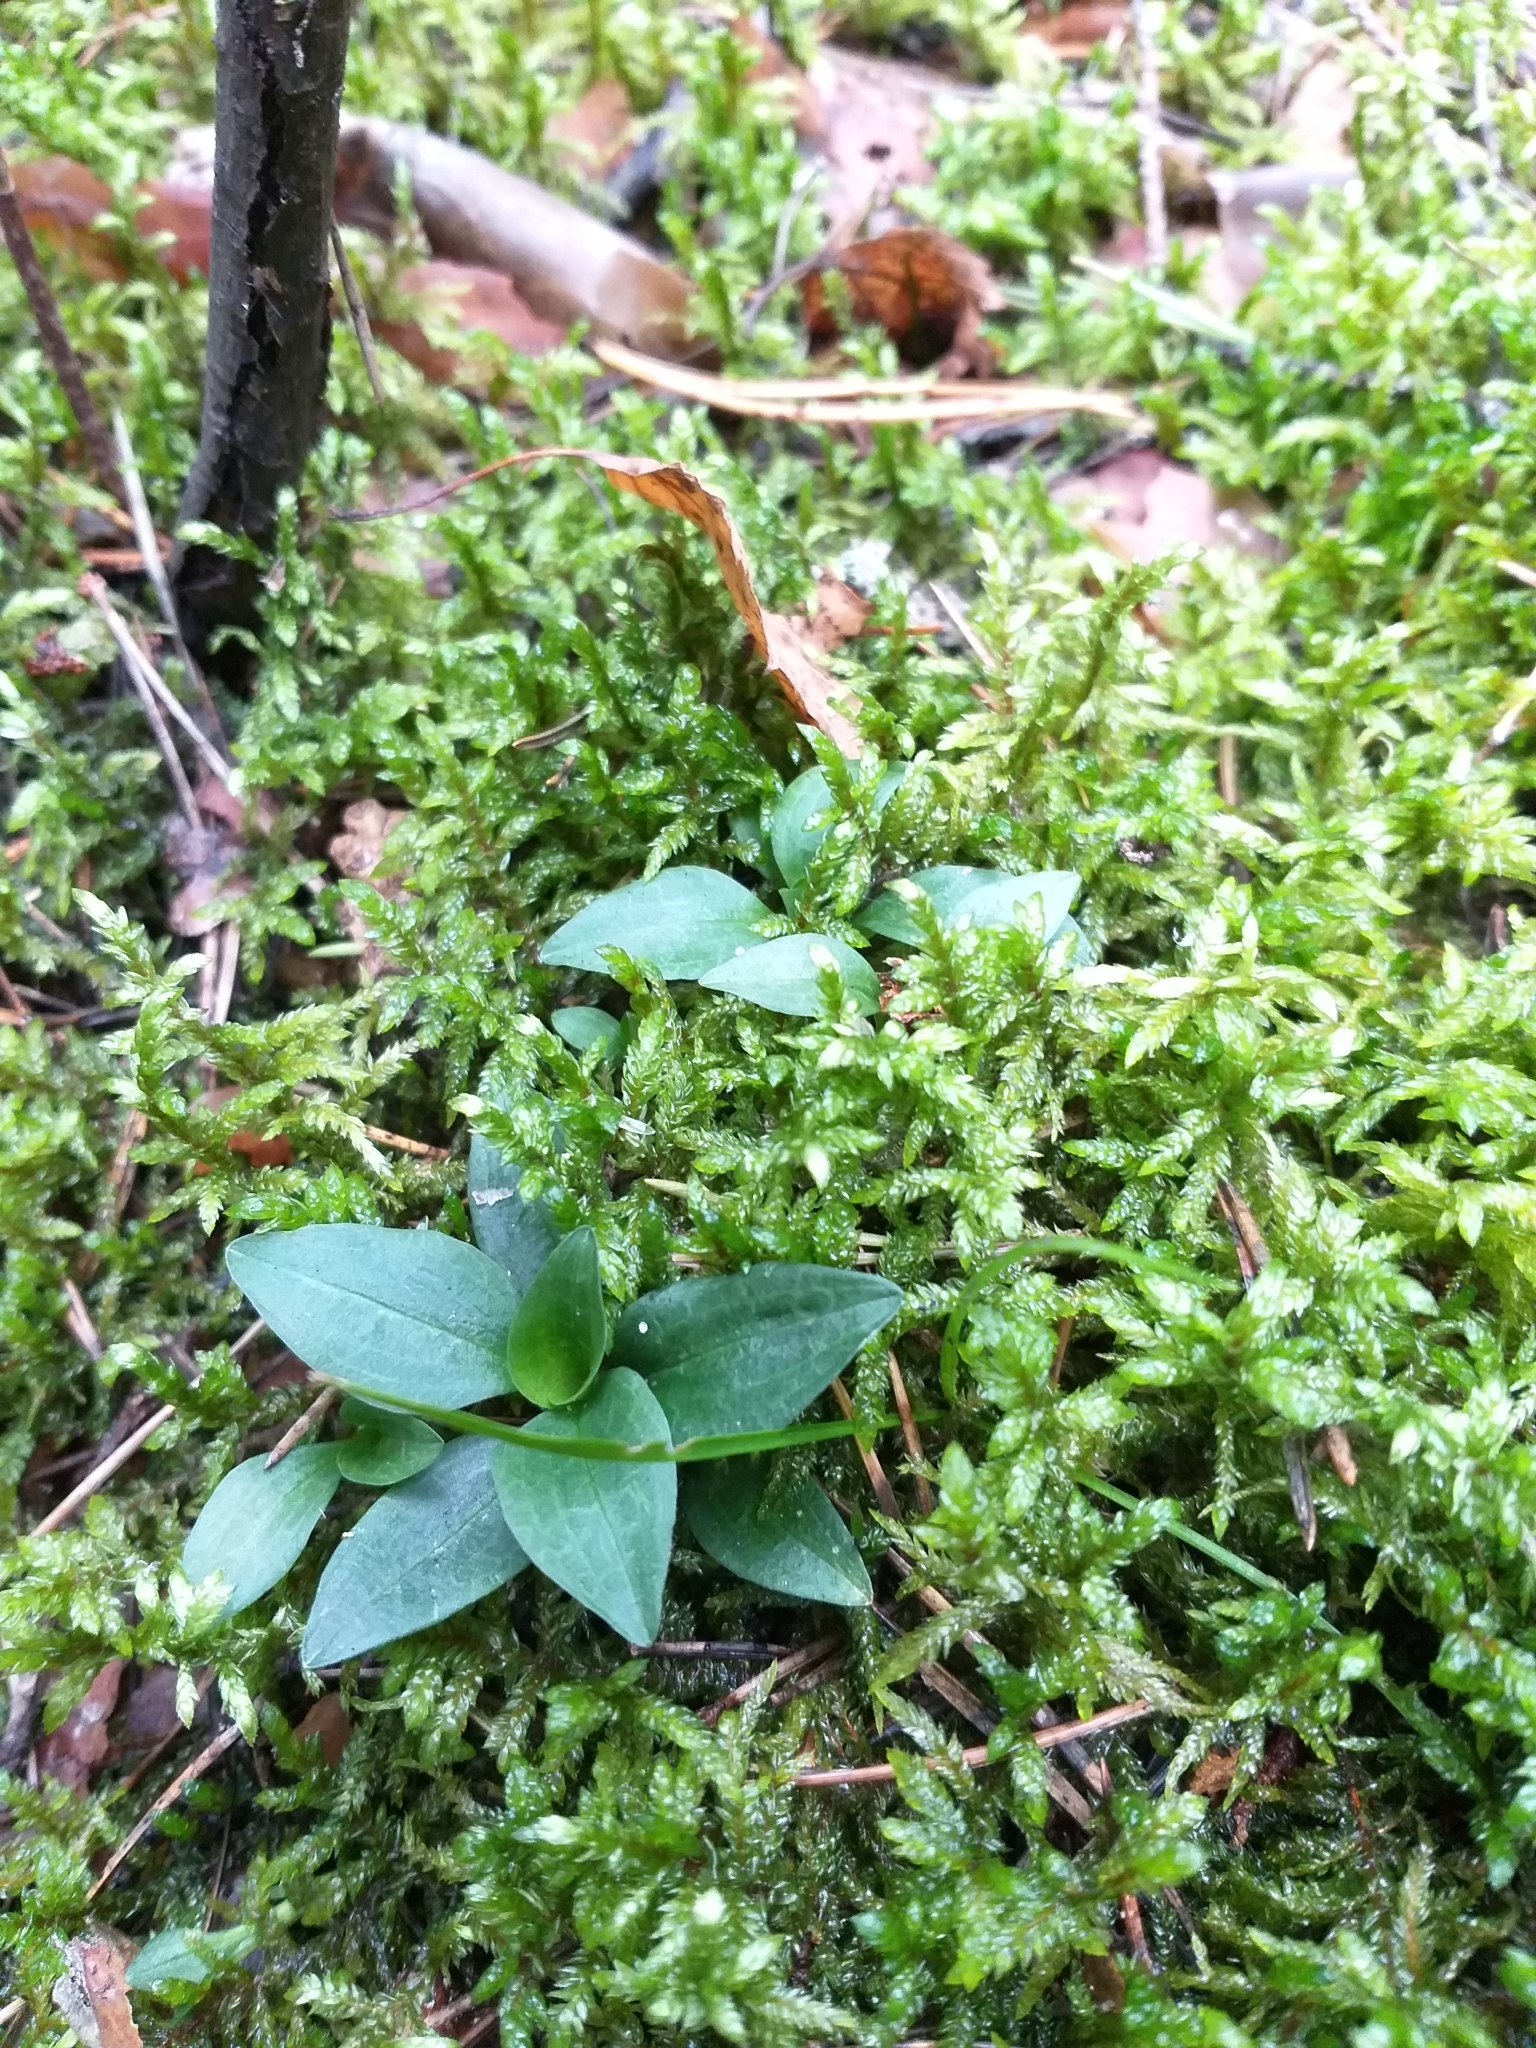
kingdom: Plantae
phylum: Tracheophyta
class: Liliopsida
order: Asparagales
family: Orchidaceae
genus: Goodyera
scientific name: Goodyera repens
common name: Creeping lady's-tresses
